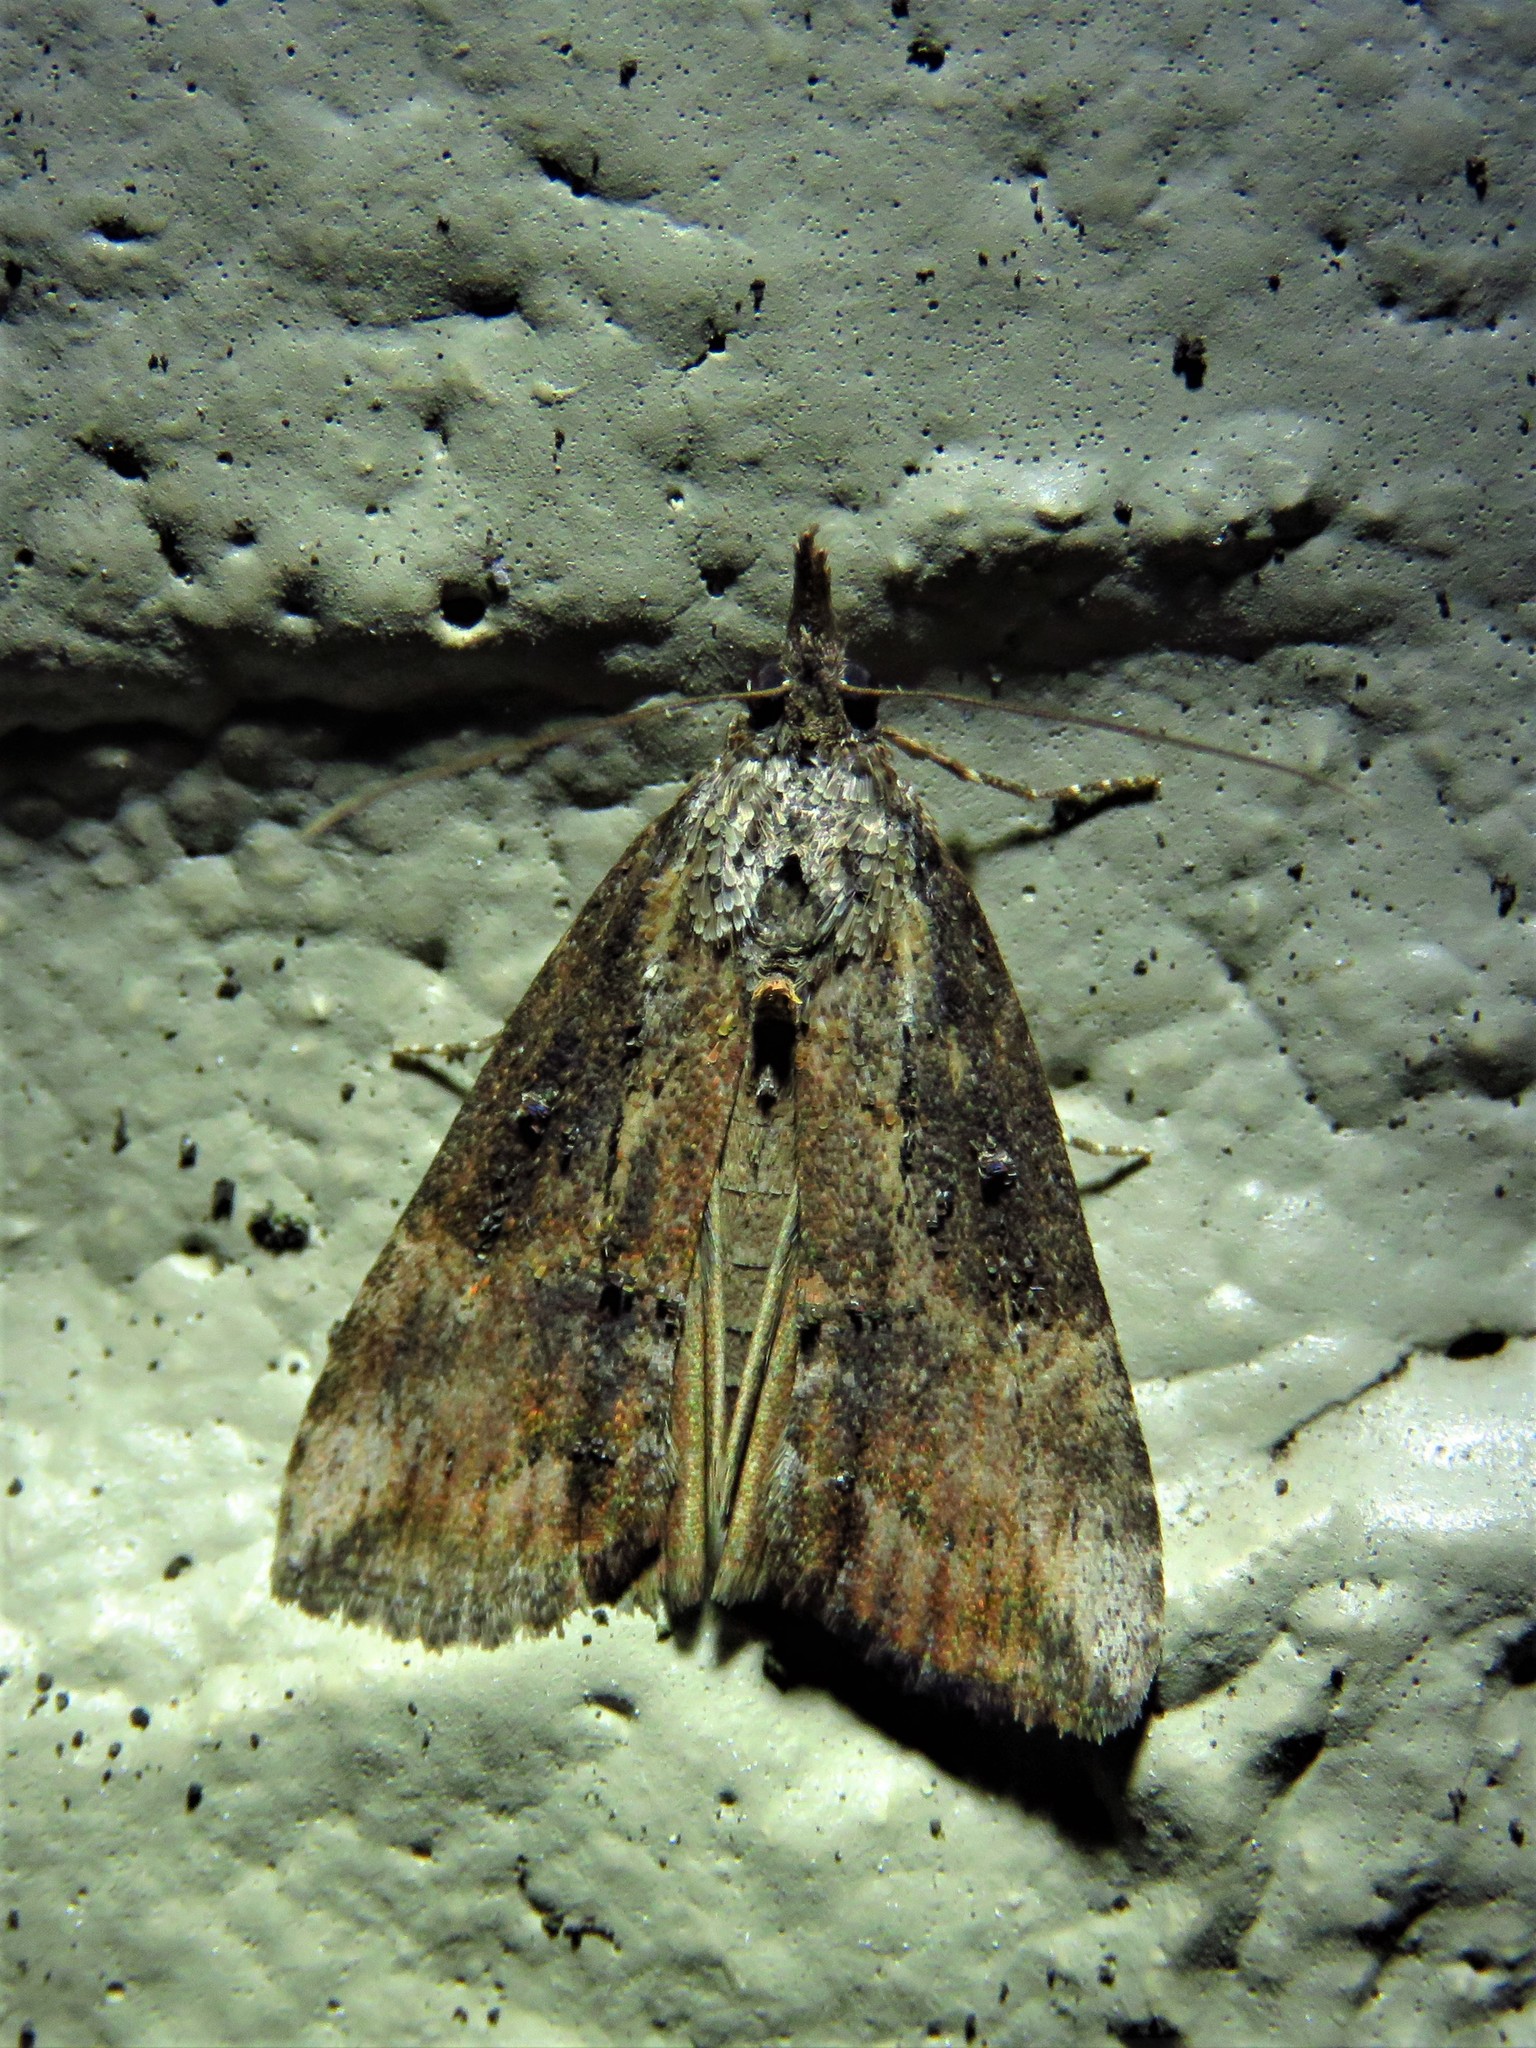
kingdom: Animalia
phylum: Arthropoda
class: Insecta
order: Lepidoptera
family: Erebidae
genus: Hypena
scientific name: Hypena scabra
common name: Green cloverworm
